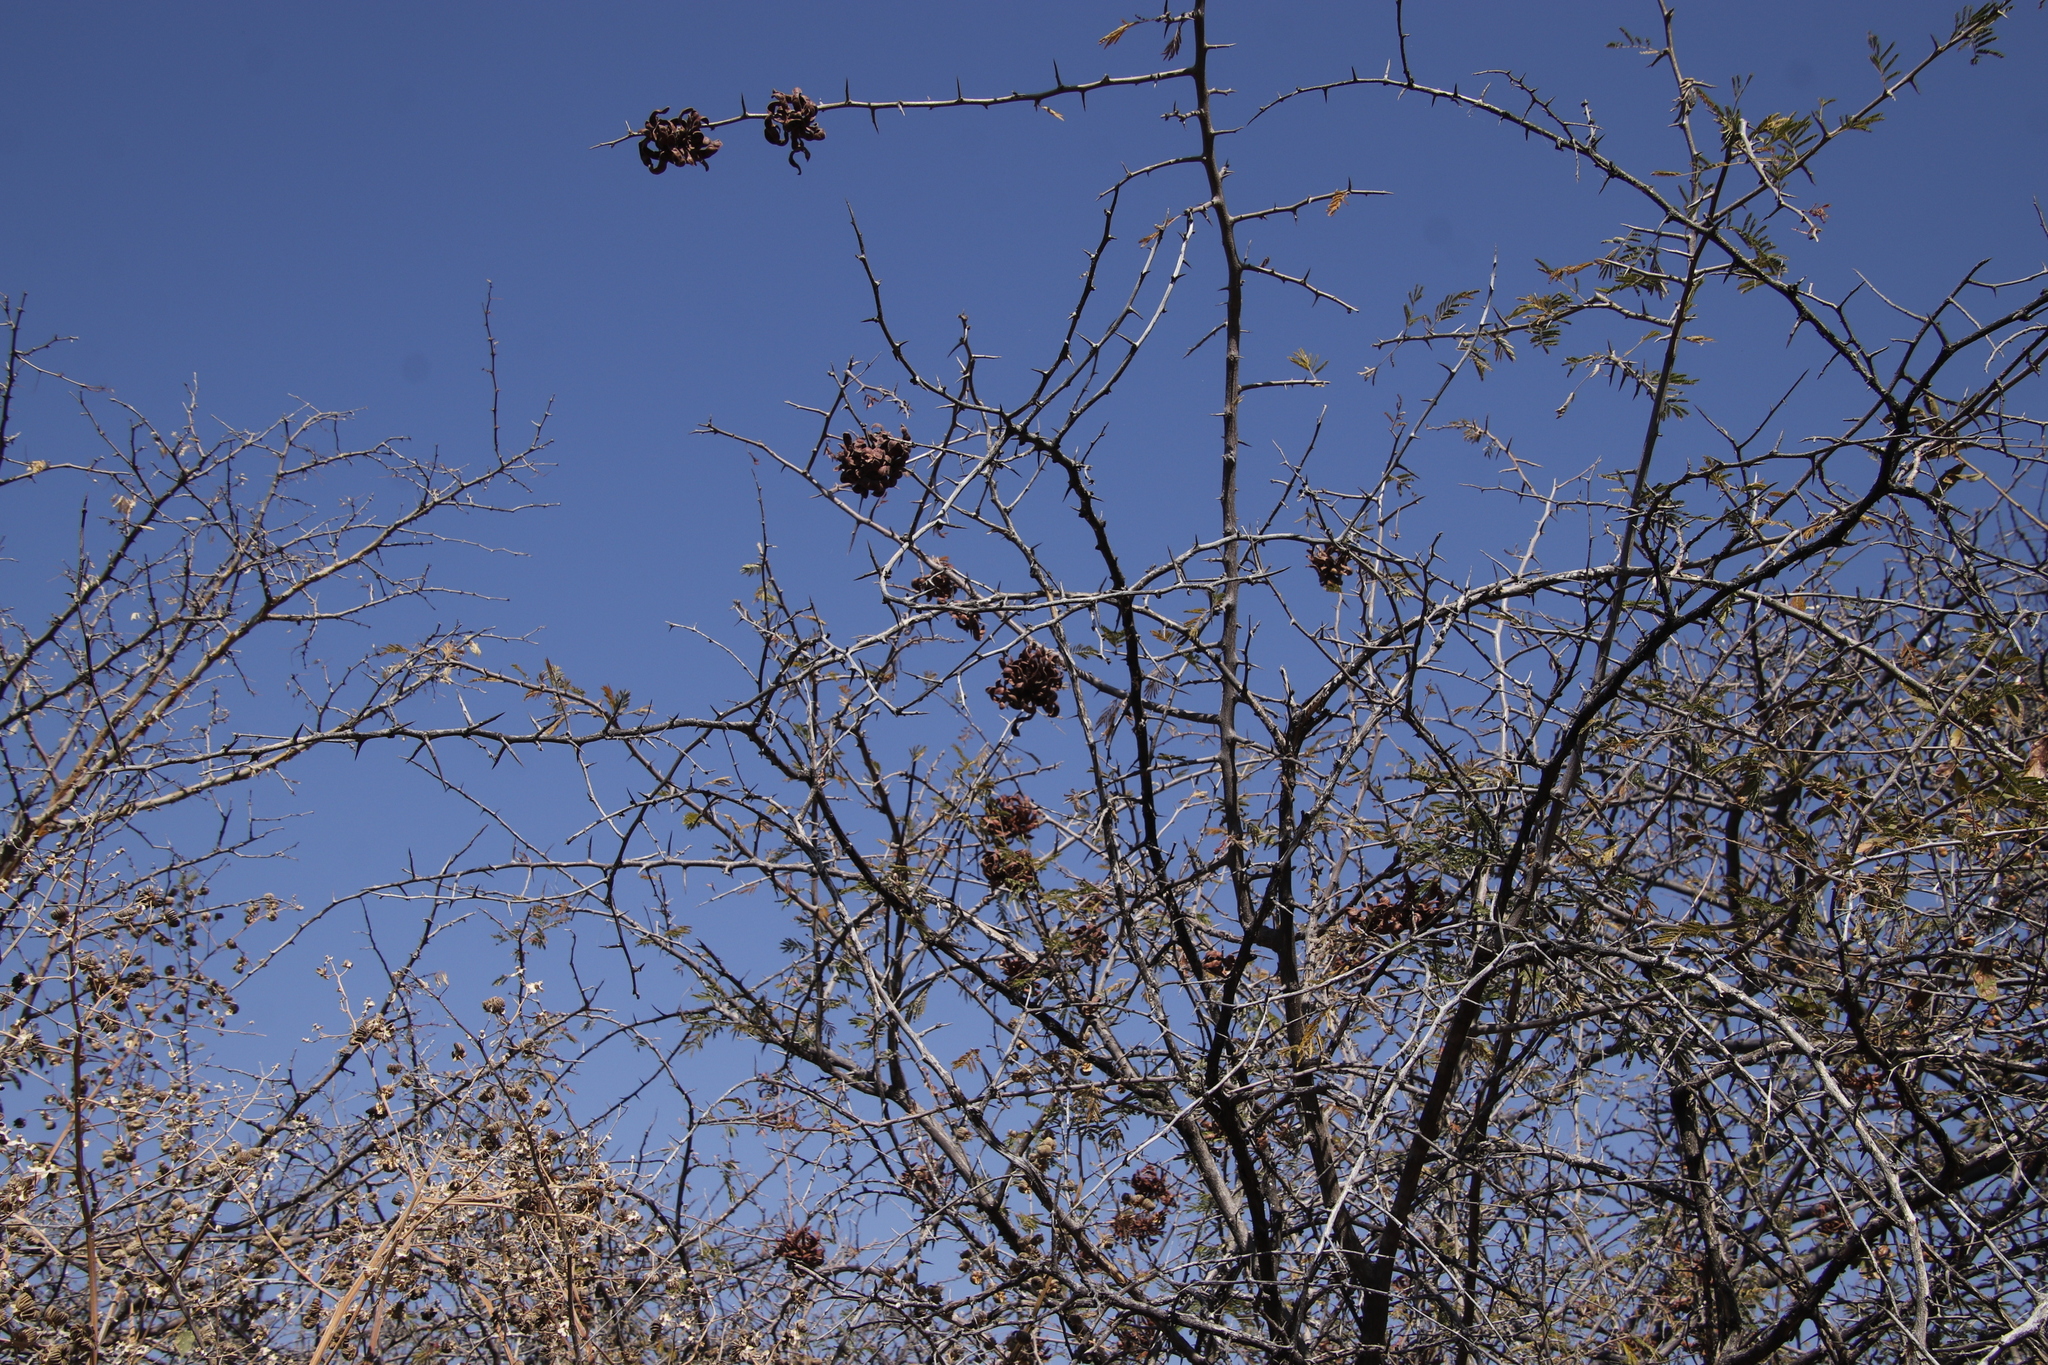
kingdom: Plantae
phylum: Tracheophyta
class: Magnoliopsida
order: Fabales
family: Fabaceae
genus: Dichrostachys
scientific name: Dichrostachys cinerea
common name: Sicklebush
